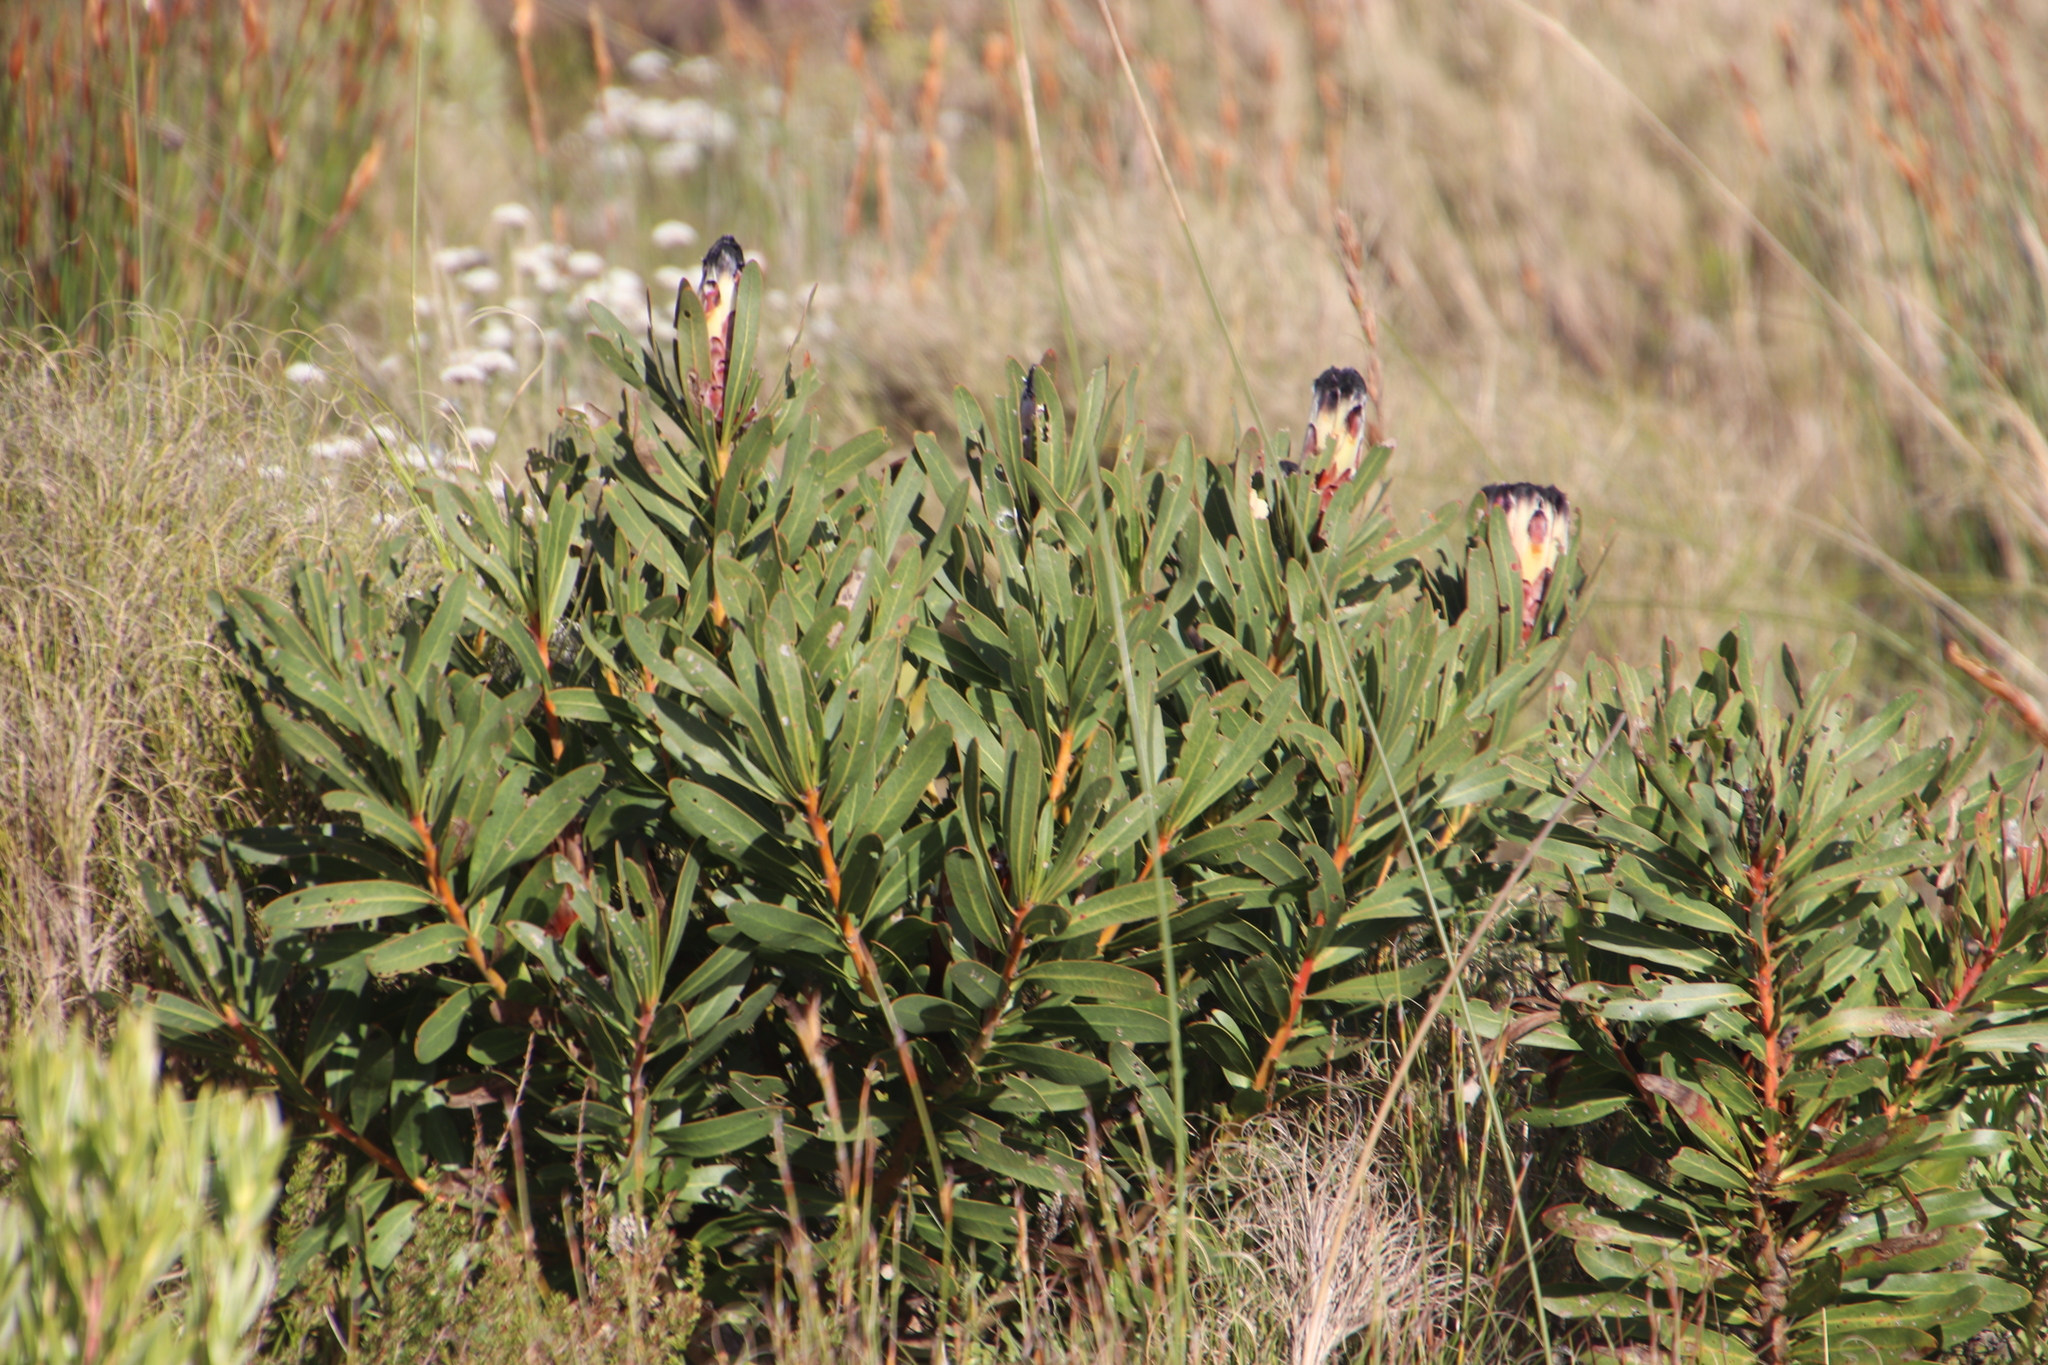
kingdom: Plantae
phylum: Tracheophyta
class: Magnoliopsida
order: Proteales
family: Proteaceae
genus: Protea
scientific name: Protea lepidocarpodendron
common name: Black-bearded protea
